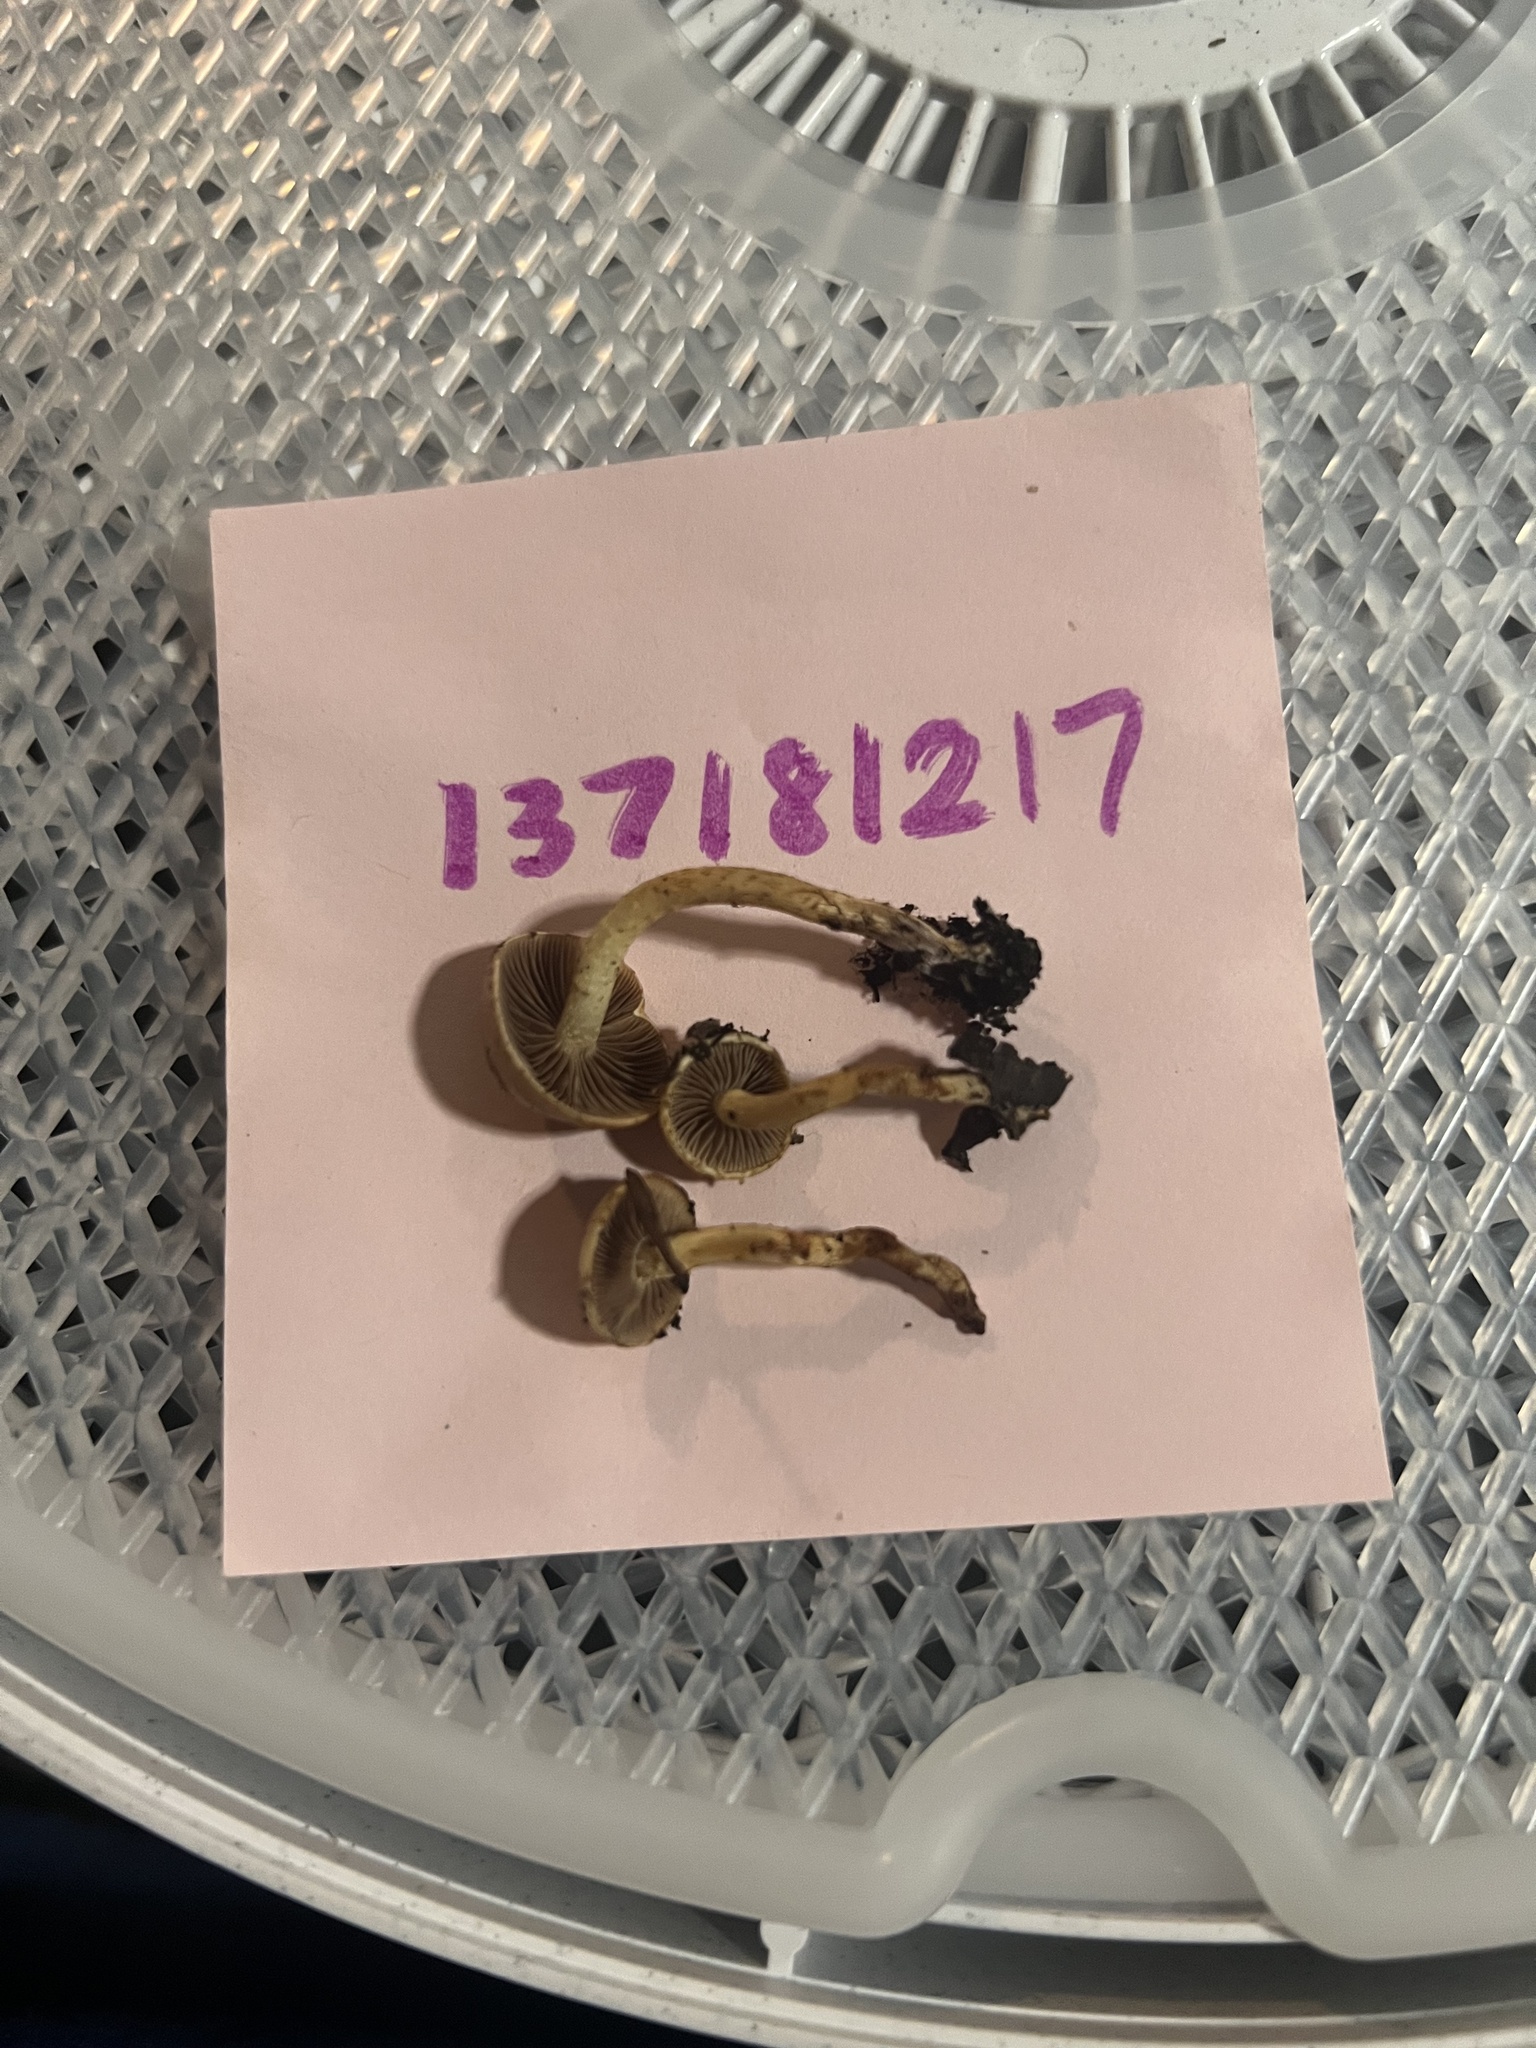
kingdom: Fungi
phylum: Basidiomycota
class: Agaricomycetes
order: Agaricales
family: Strophariaceae
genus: Pholiota
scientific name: Pholiota carbonaria
